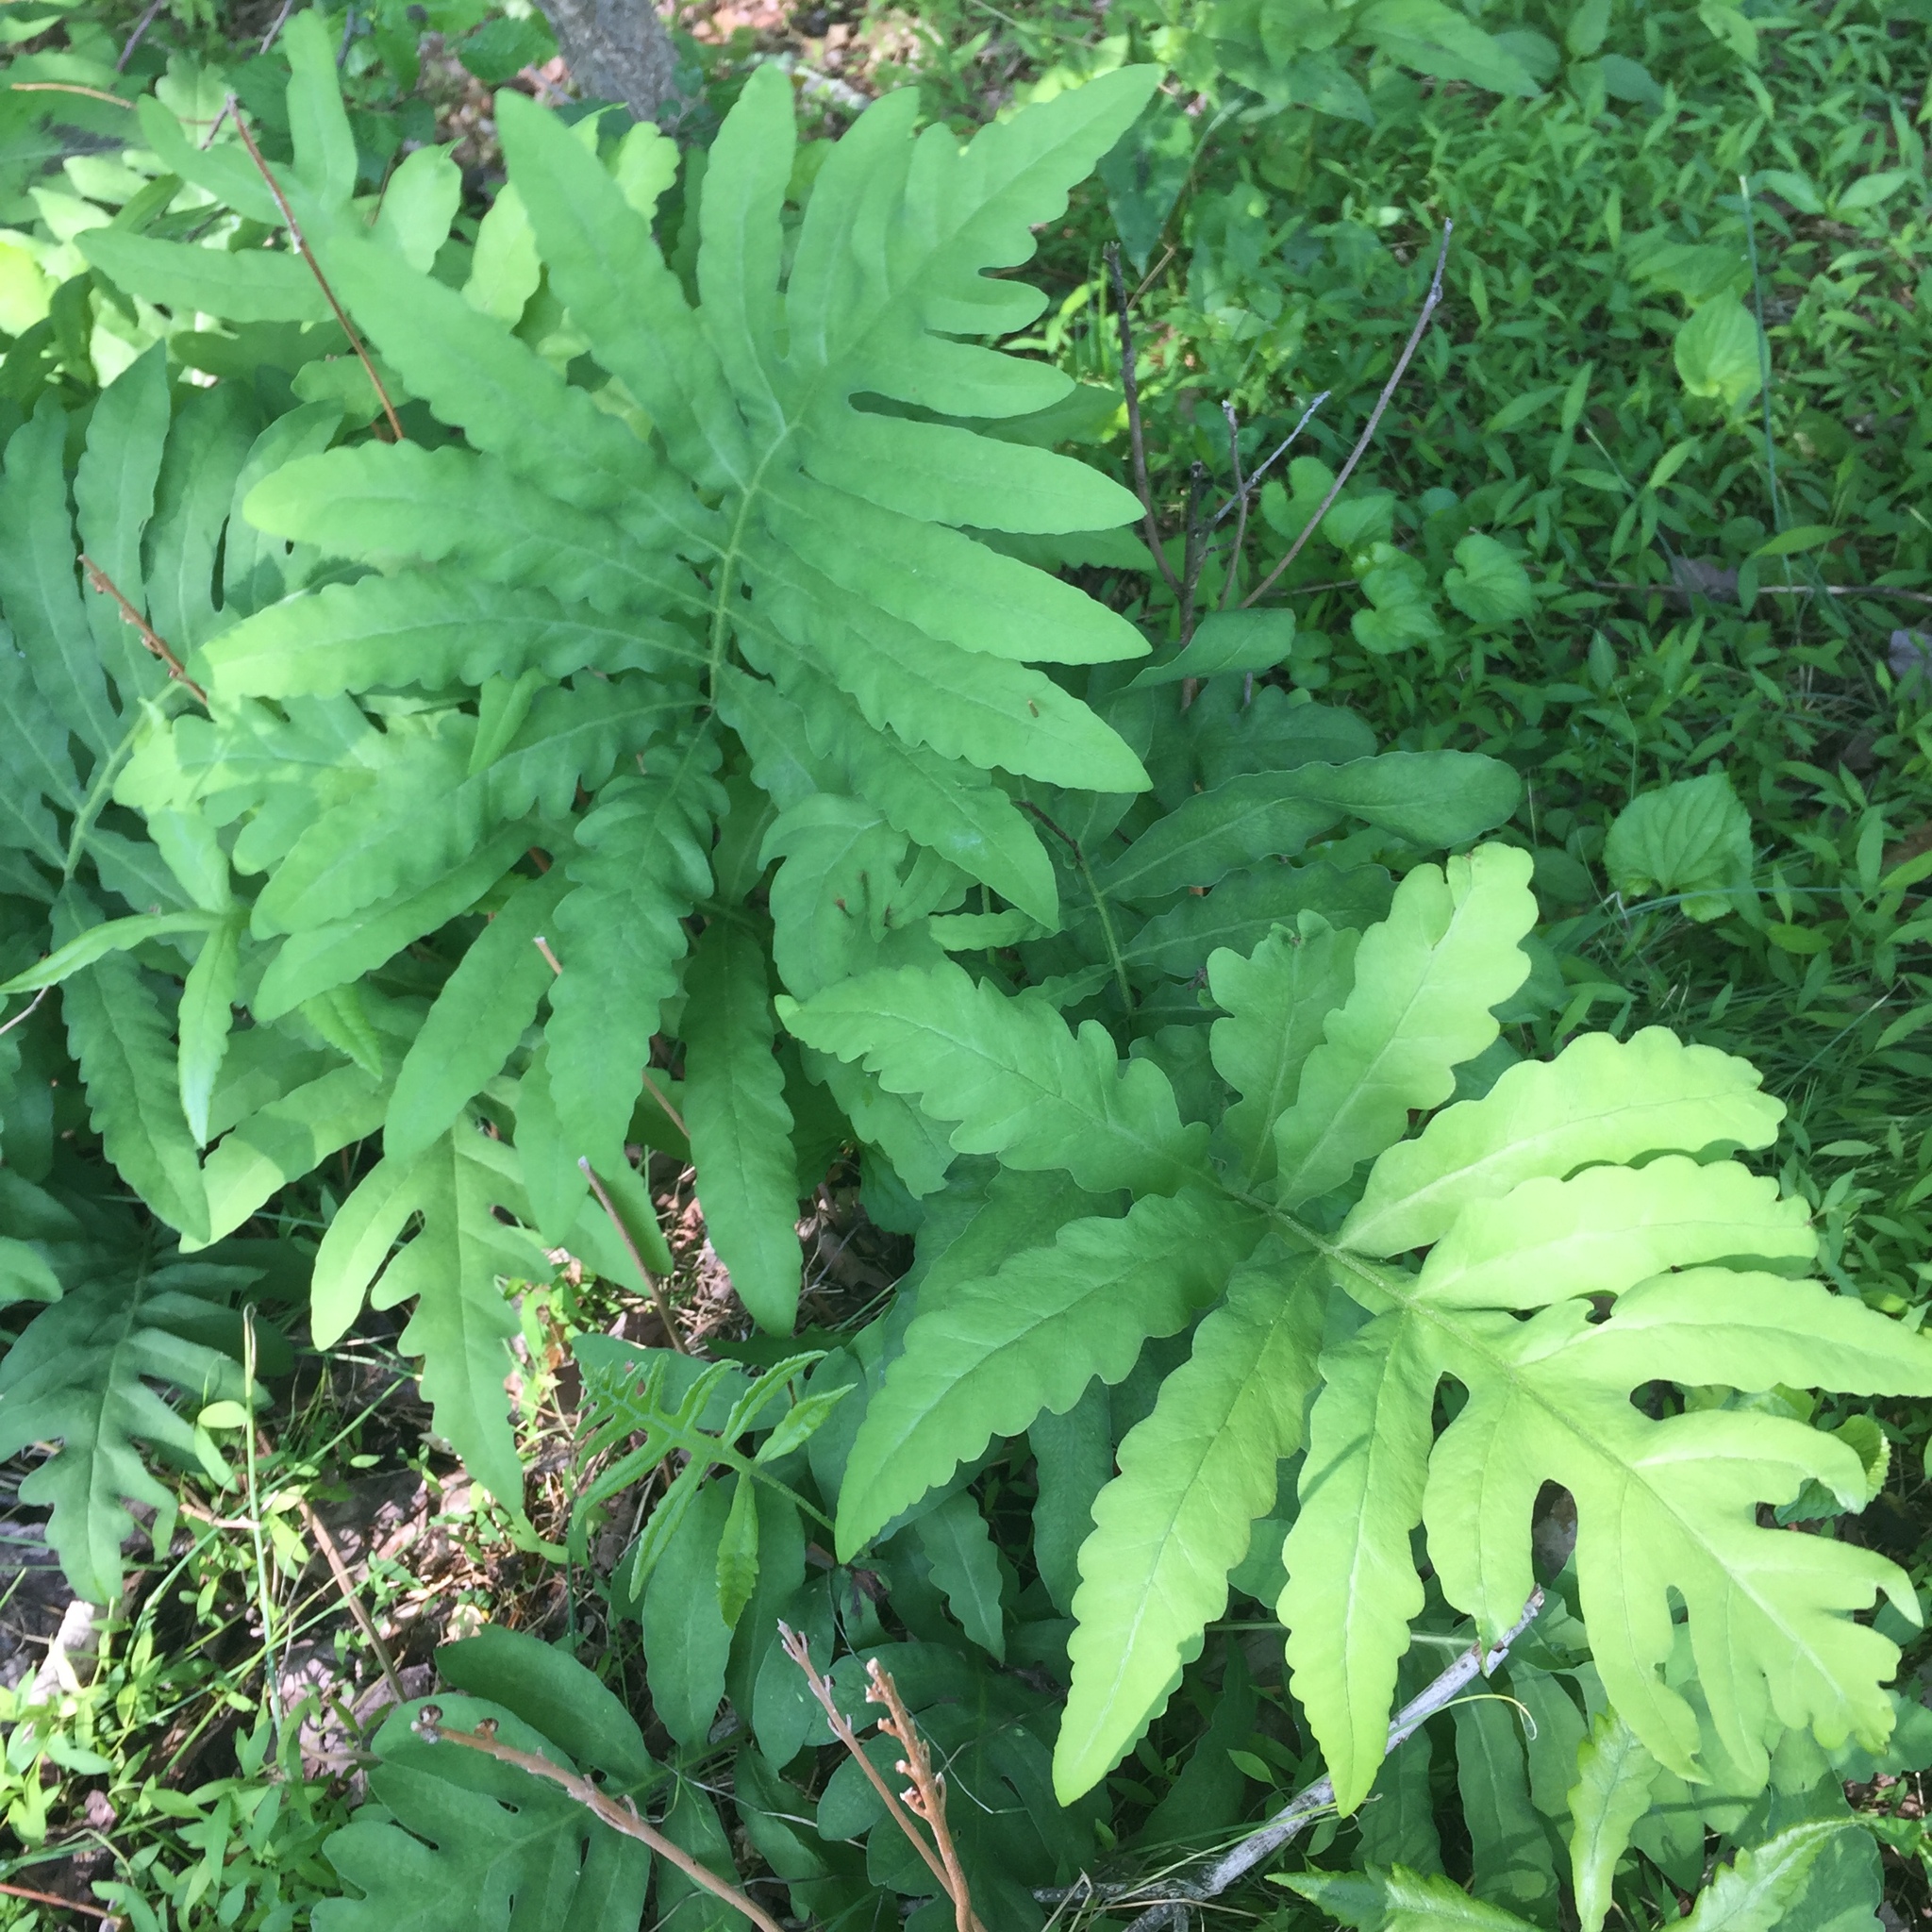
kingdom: Plantae
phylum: Tracheophyta
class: Polypodiopsida
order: Polypodiales
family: Onocleaceae
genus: Onoclea
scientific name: Onoclea sensibilis
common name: Sensitive fern
